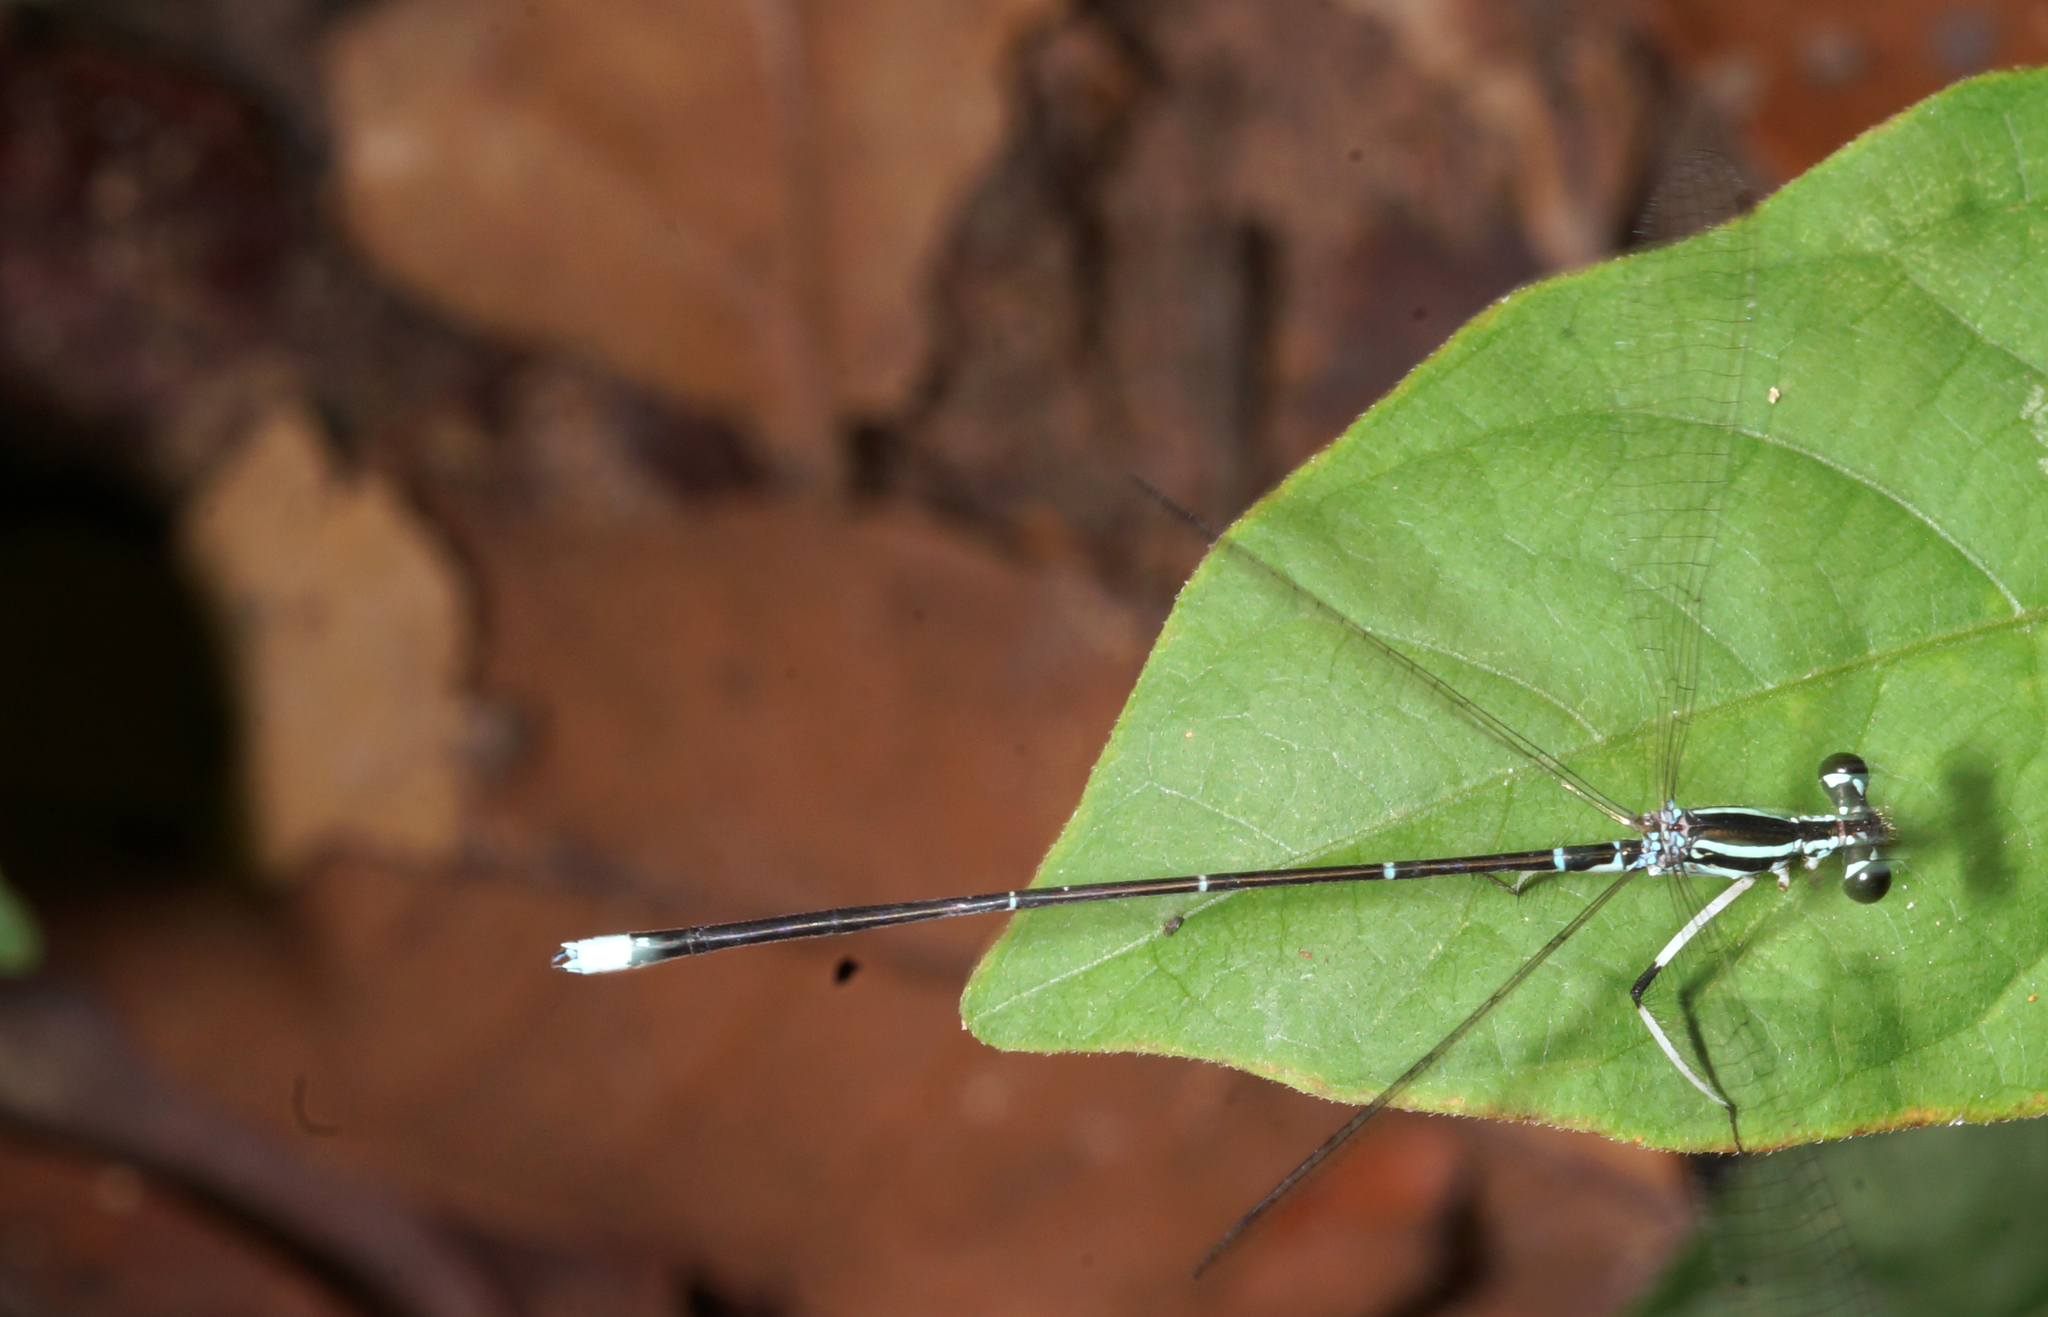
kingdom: Animalia
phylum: Arthropoda
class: Insecta
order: Odonata
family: Platycnemididae
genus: Pseudocopera
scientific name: Pseudocopera ciliata
